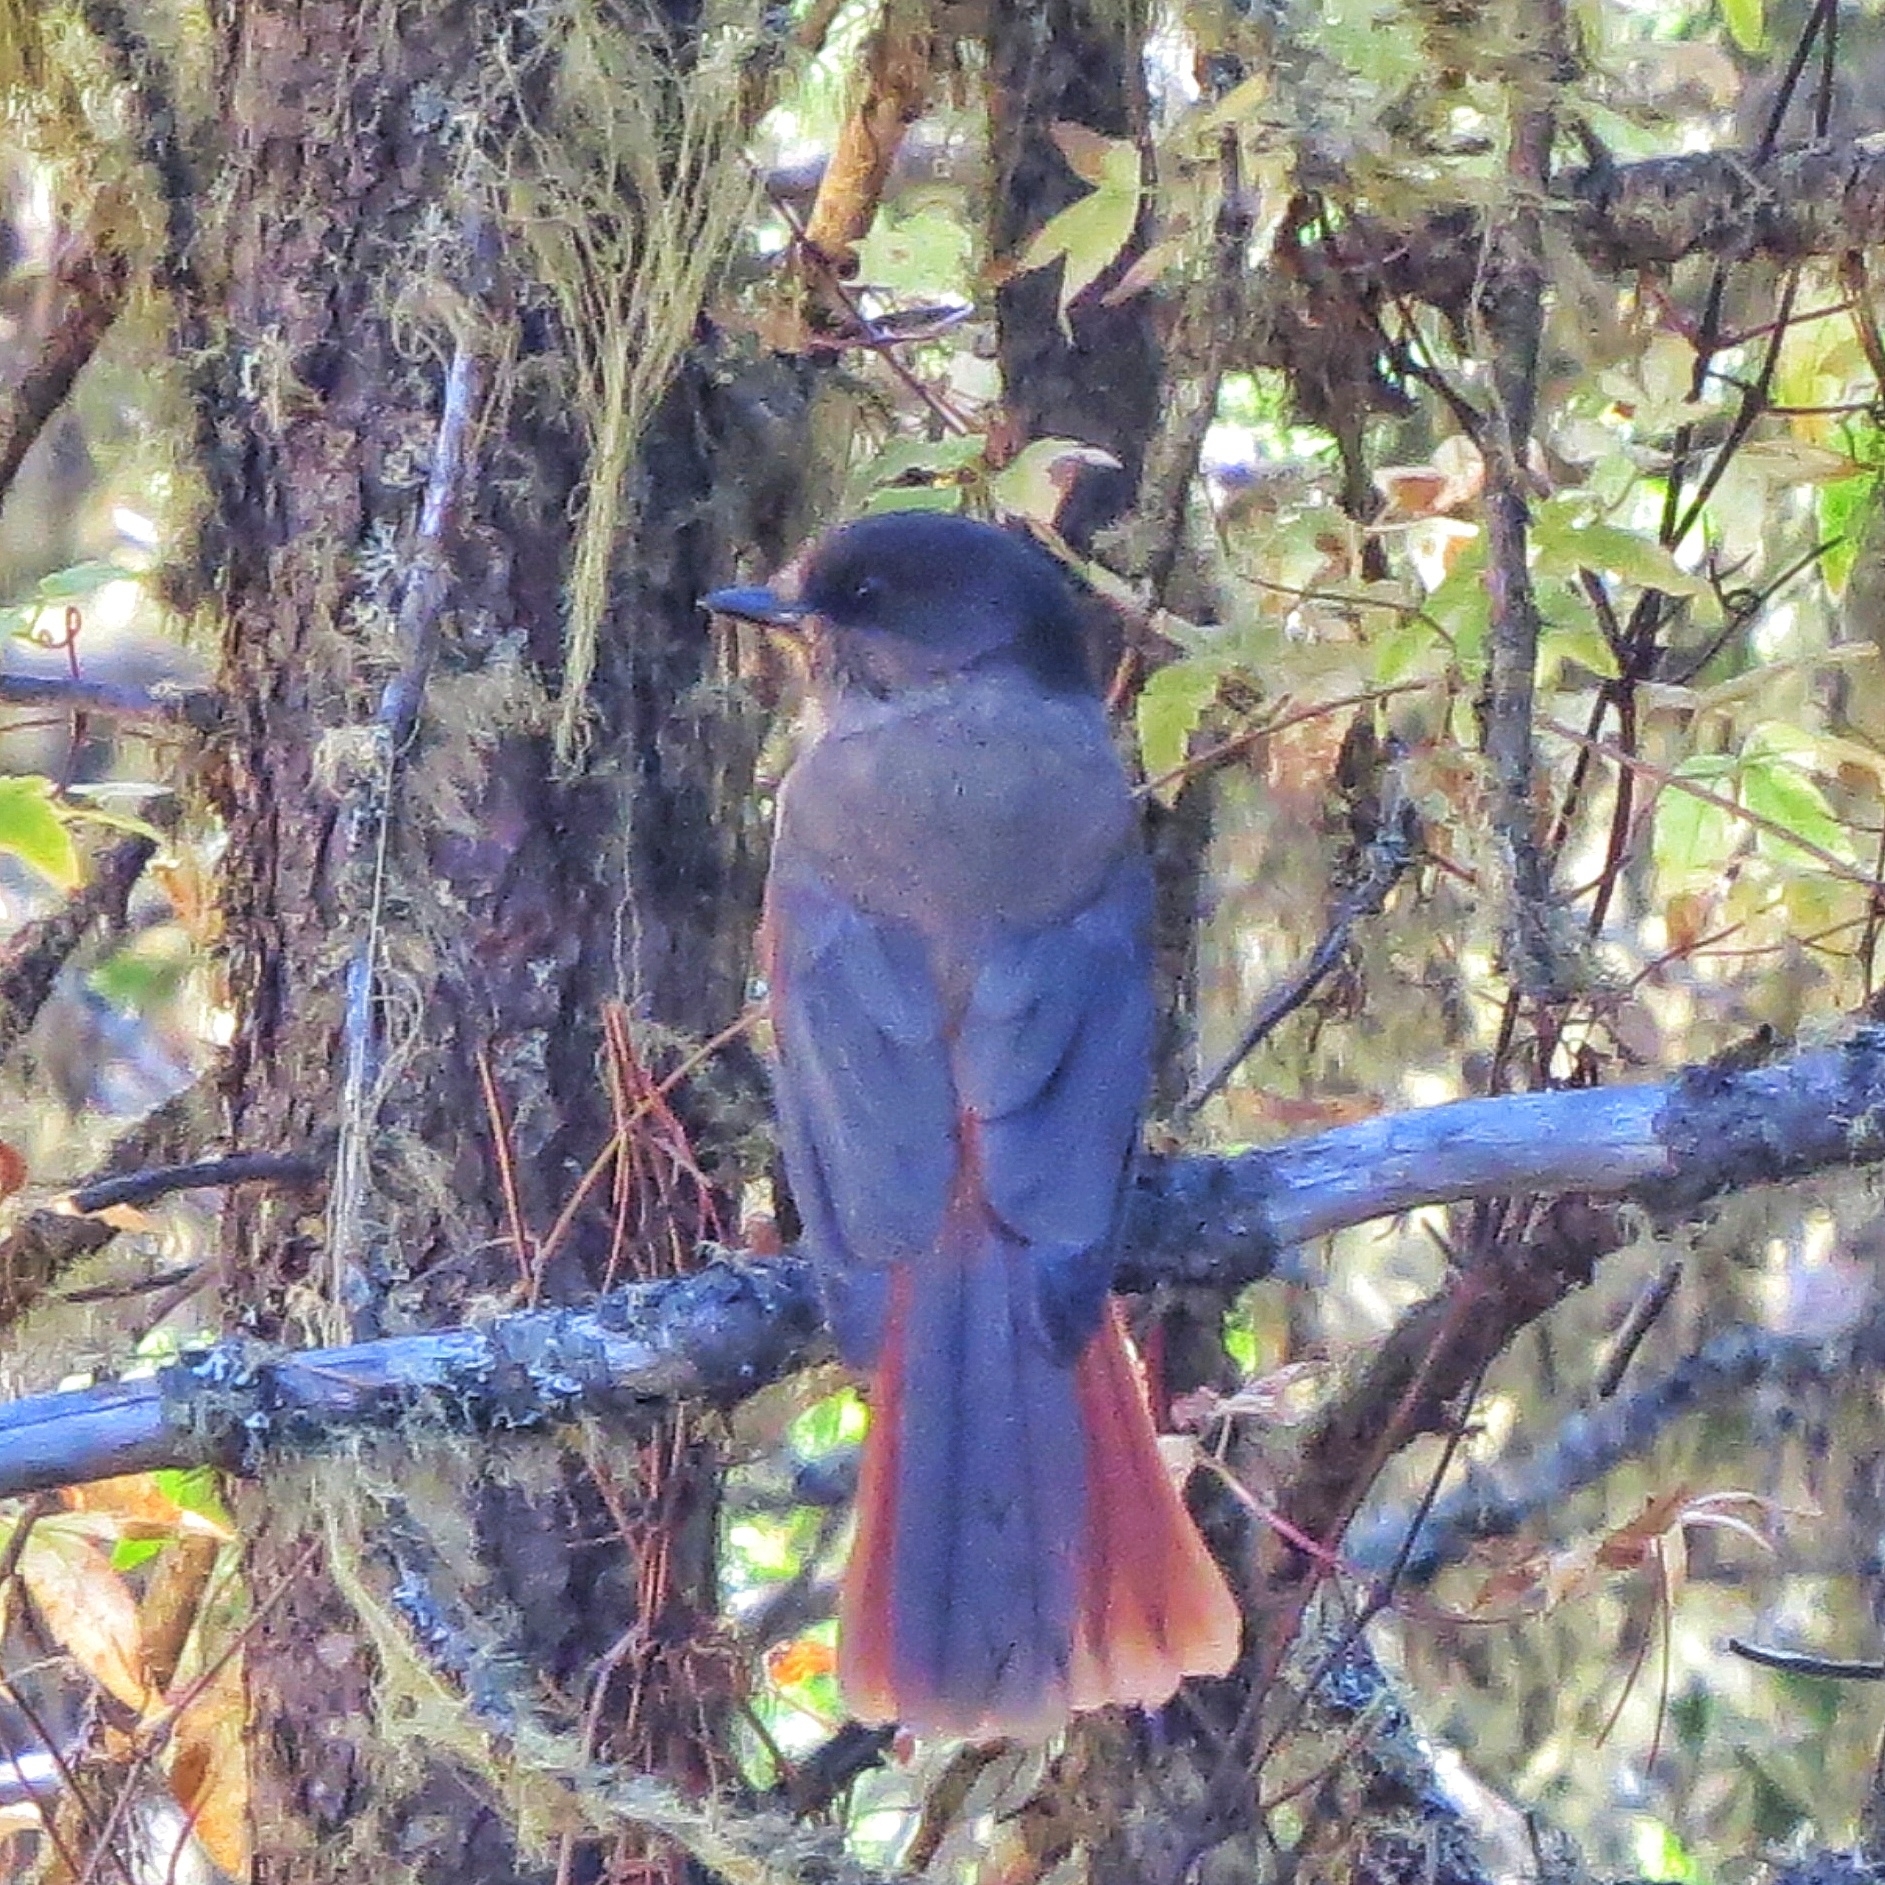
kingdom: Animalia
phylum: Chordata
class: Aves
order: Passeriformes
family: Corvidae
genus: Perisoreus
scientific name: Perisoreus infaustus
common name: Siberian jay
